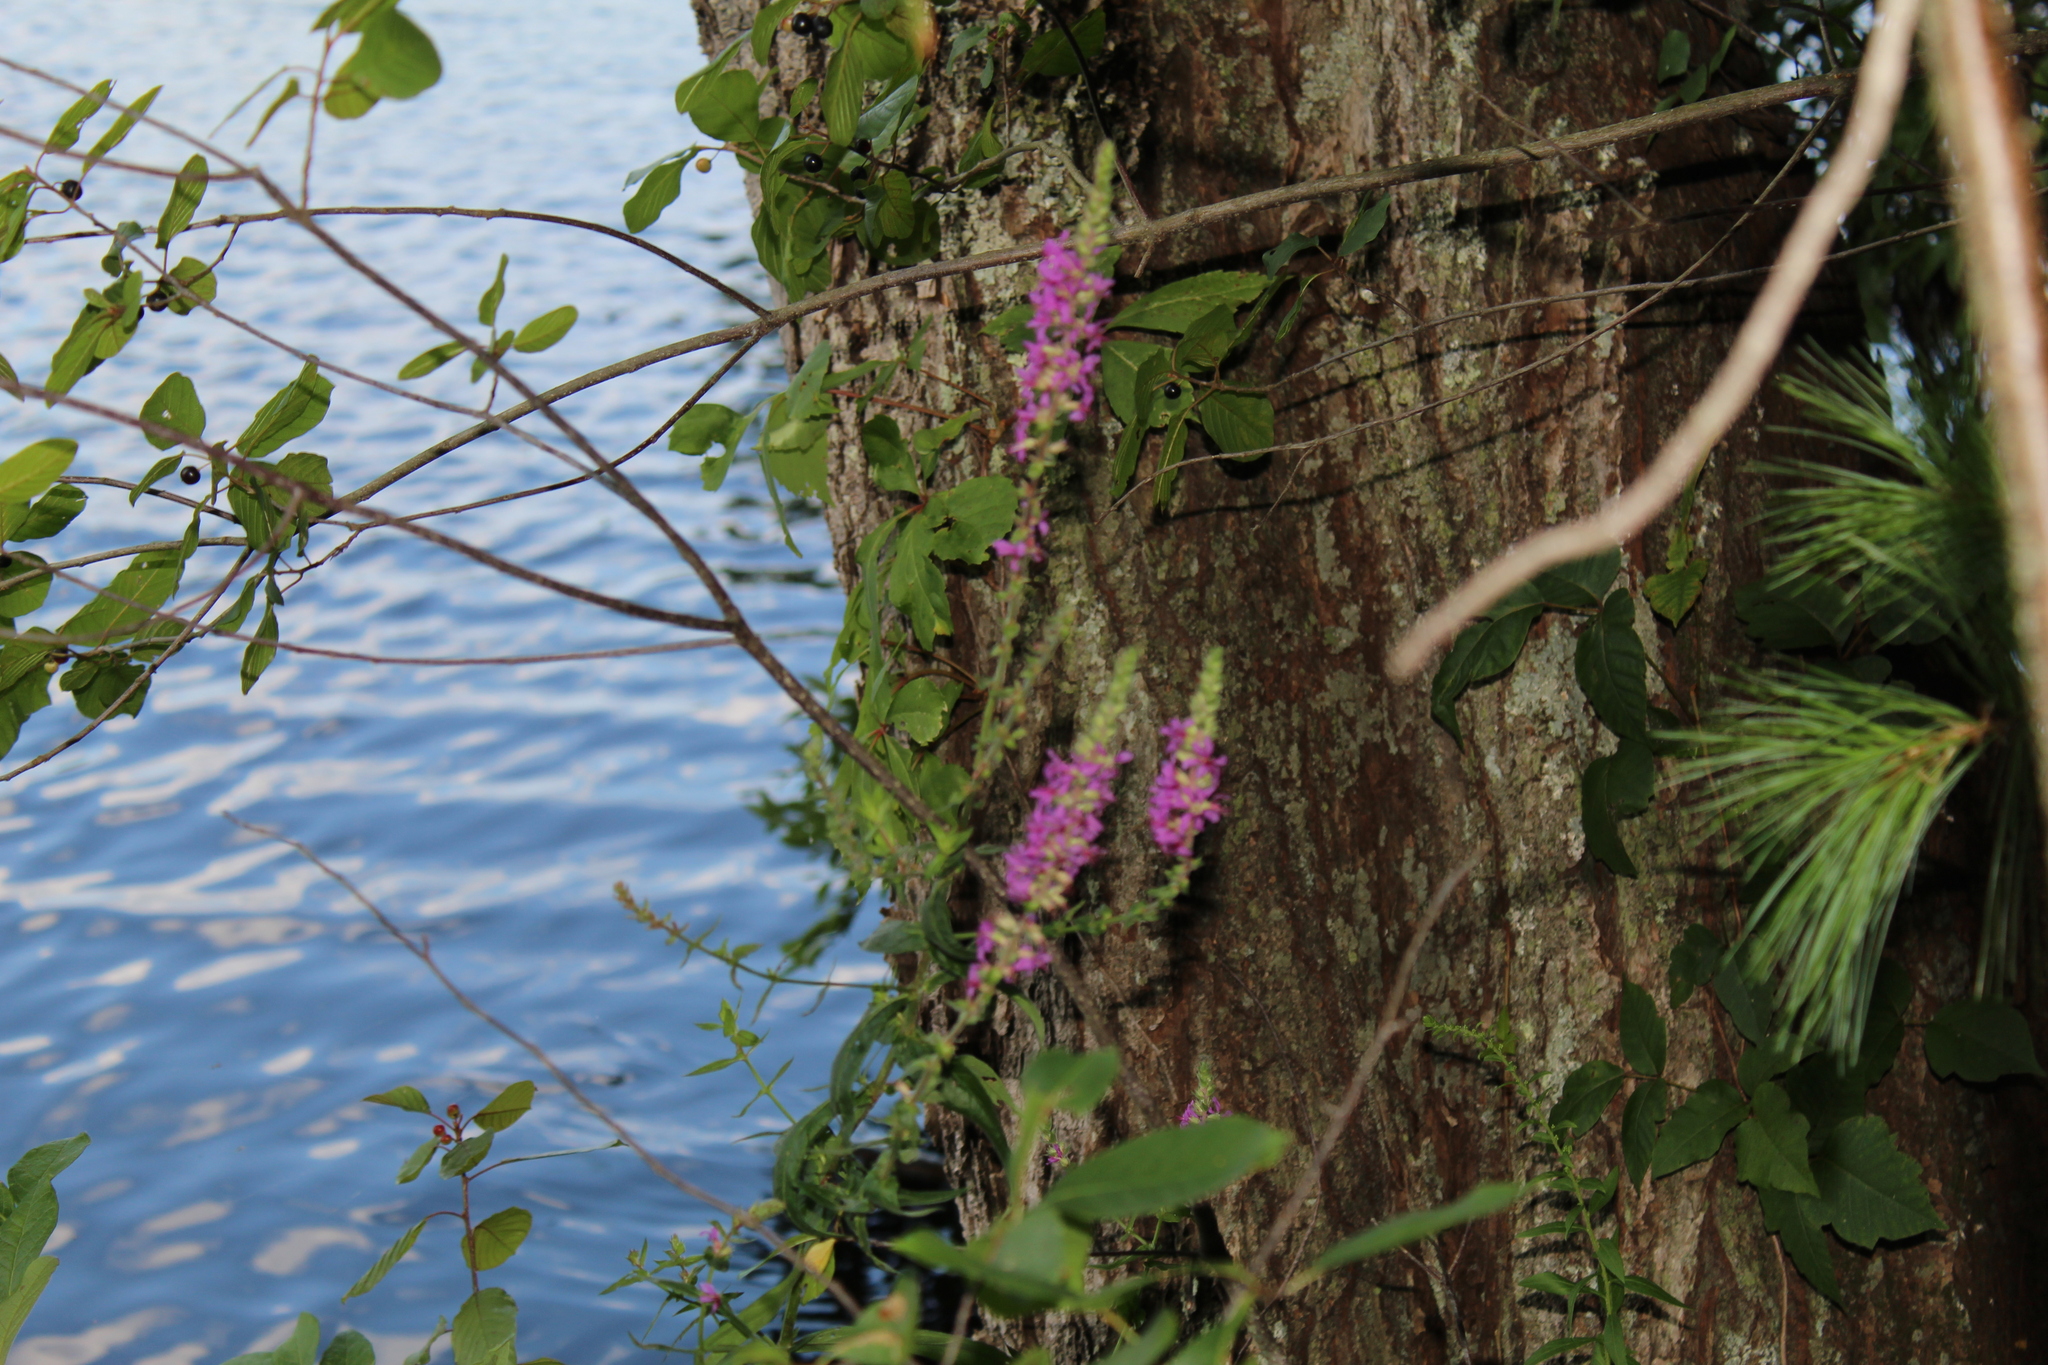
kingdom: Plantae
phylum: Tracheophyta
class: Magnoliopsida
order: Myrtales
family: Lythraceae
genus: Lythrum
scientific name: Lythrum salicaria
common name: Purple loosestrife
